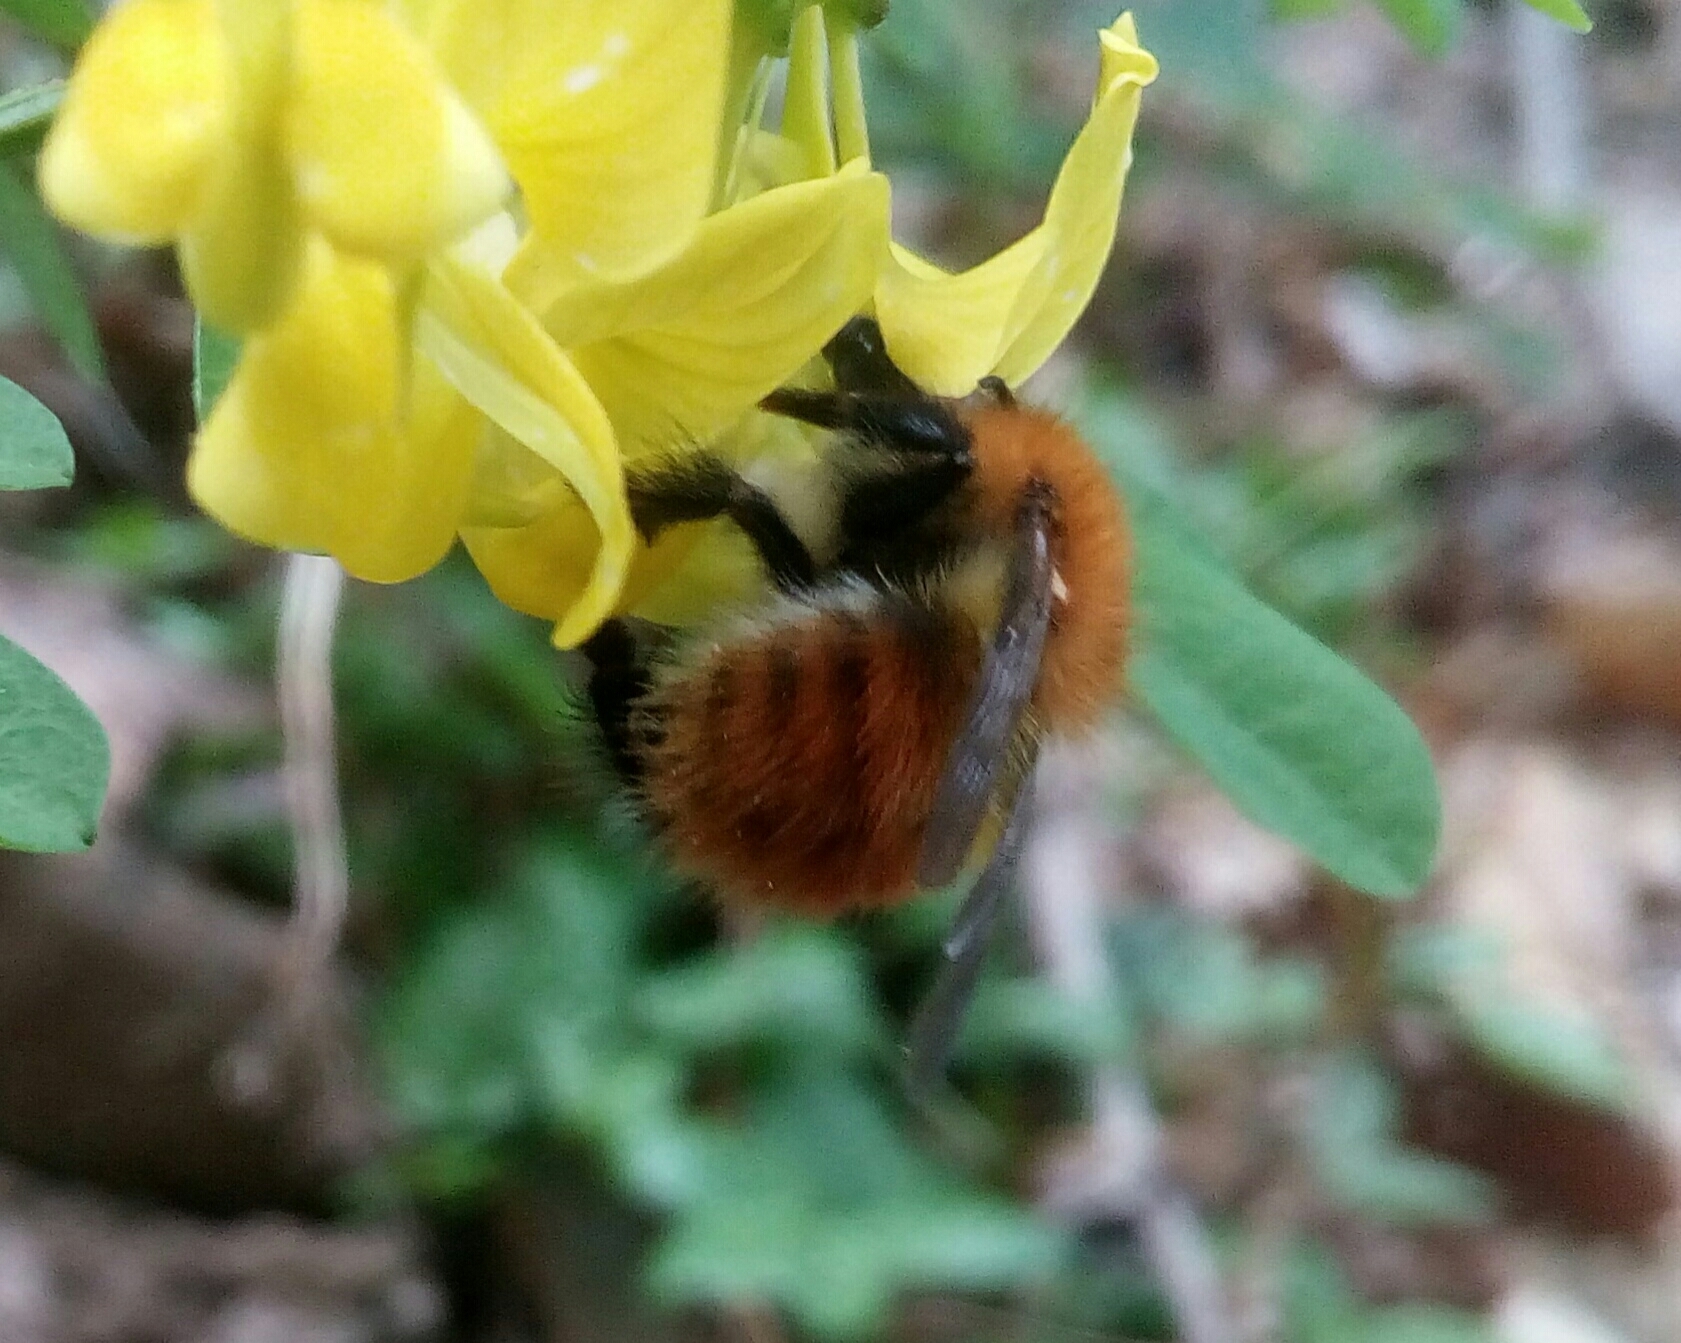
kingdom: Animalia
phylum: Arthropoda
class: Insecta
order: Hymenoptera
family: Apidae
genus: Bombus
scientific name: Bombus pascuorum
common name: Common carder bee
